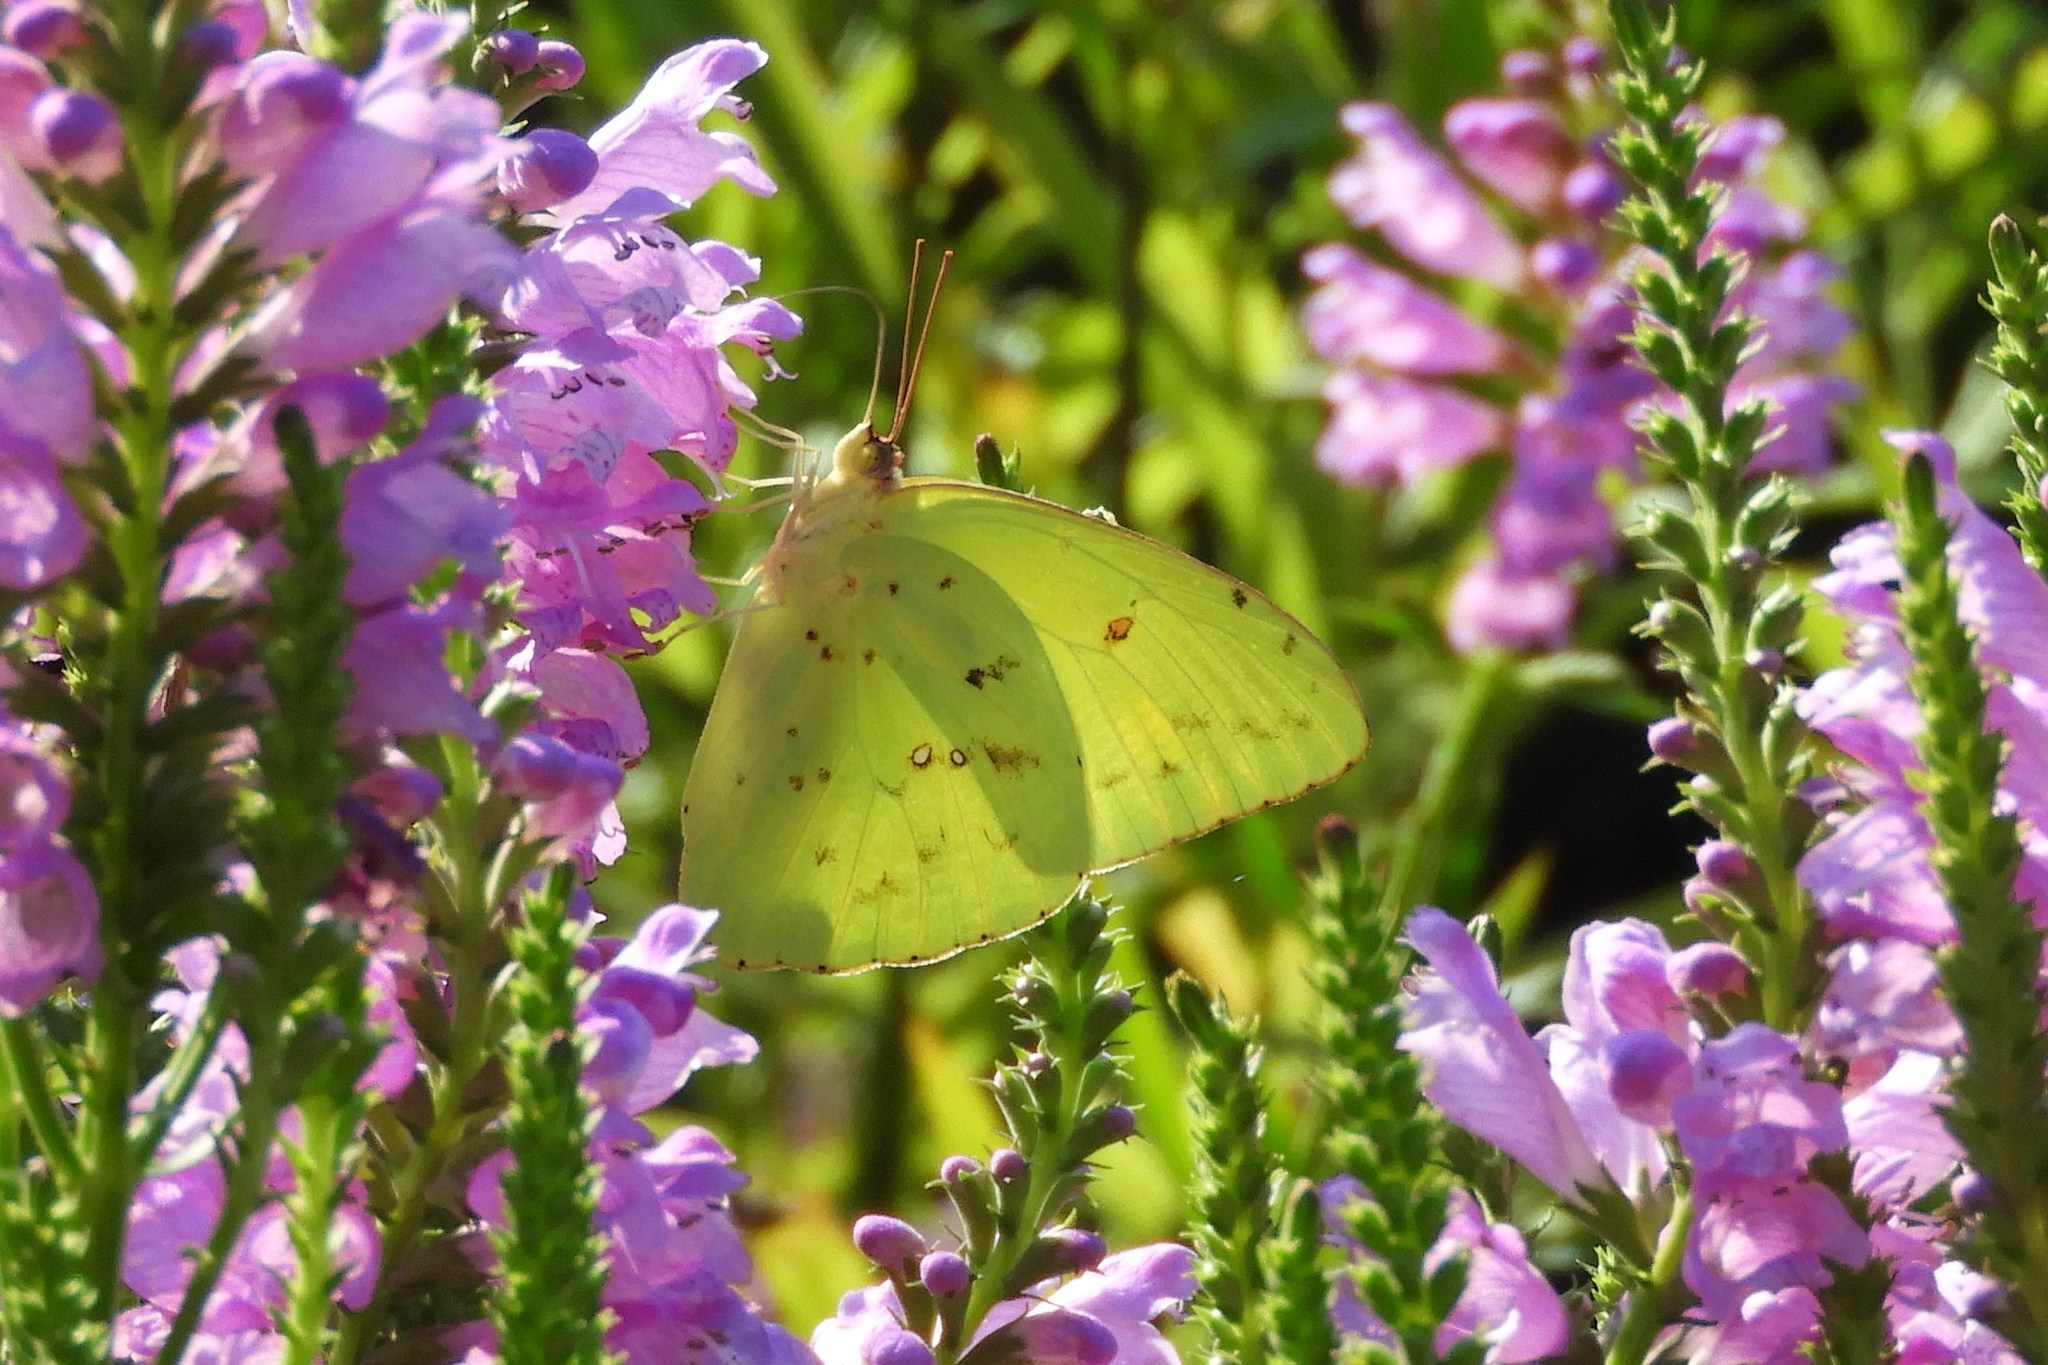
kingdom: Animalia
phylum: Arthropoda
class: Insecta
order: Lepidoptera
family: Pieridae
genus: Phoebis
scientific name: Phoebis sennae
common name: Cloudless sulphur
